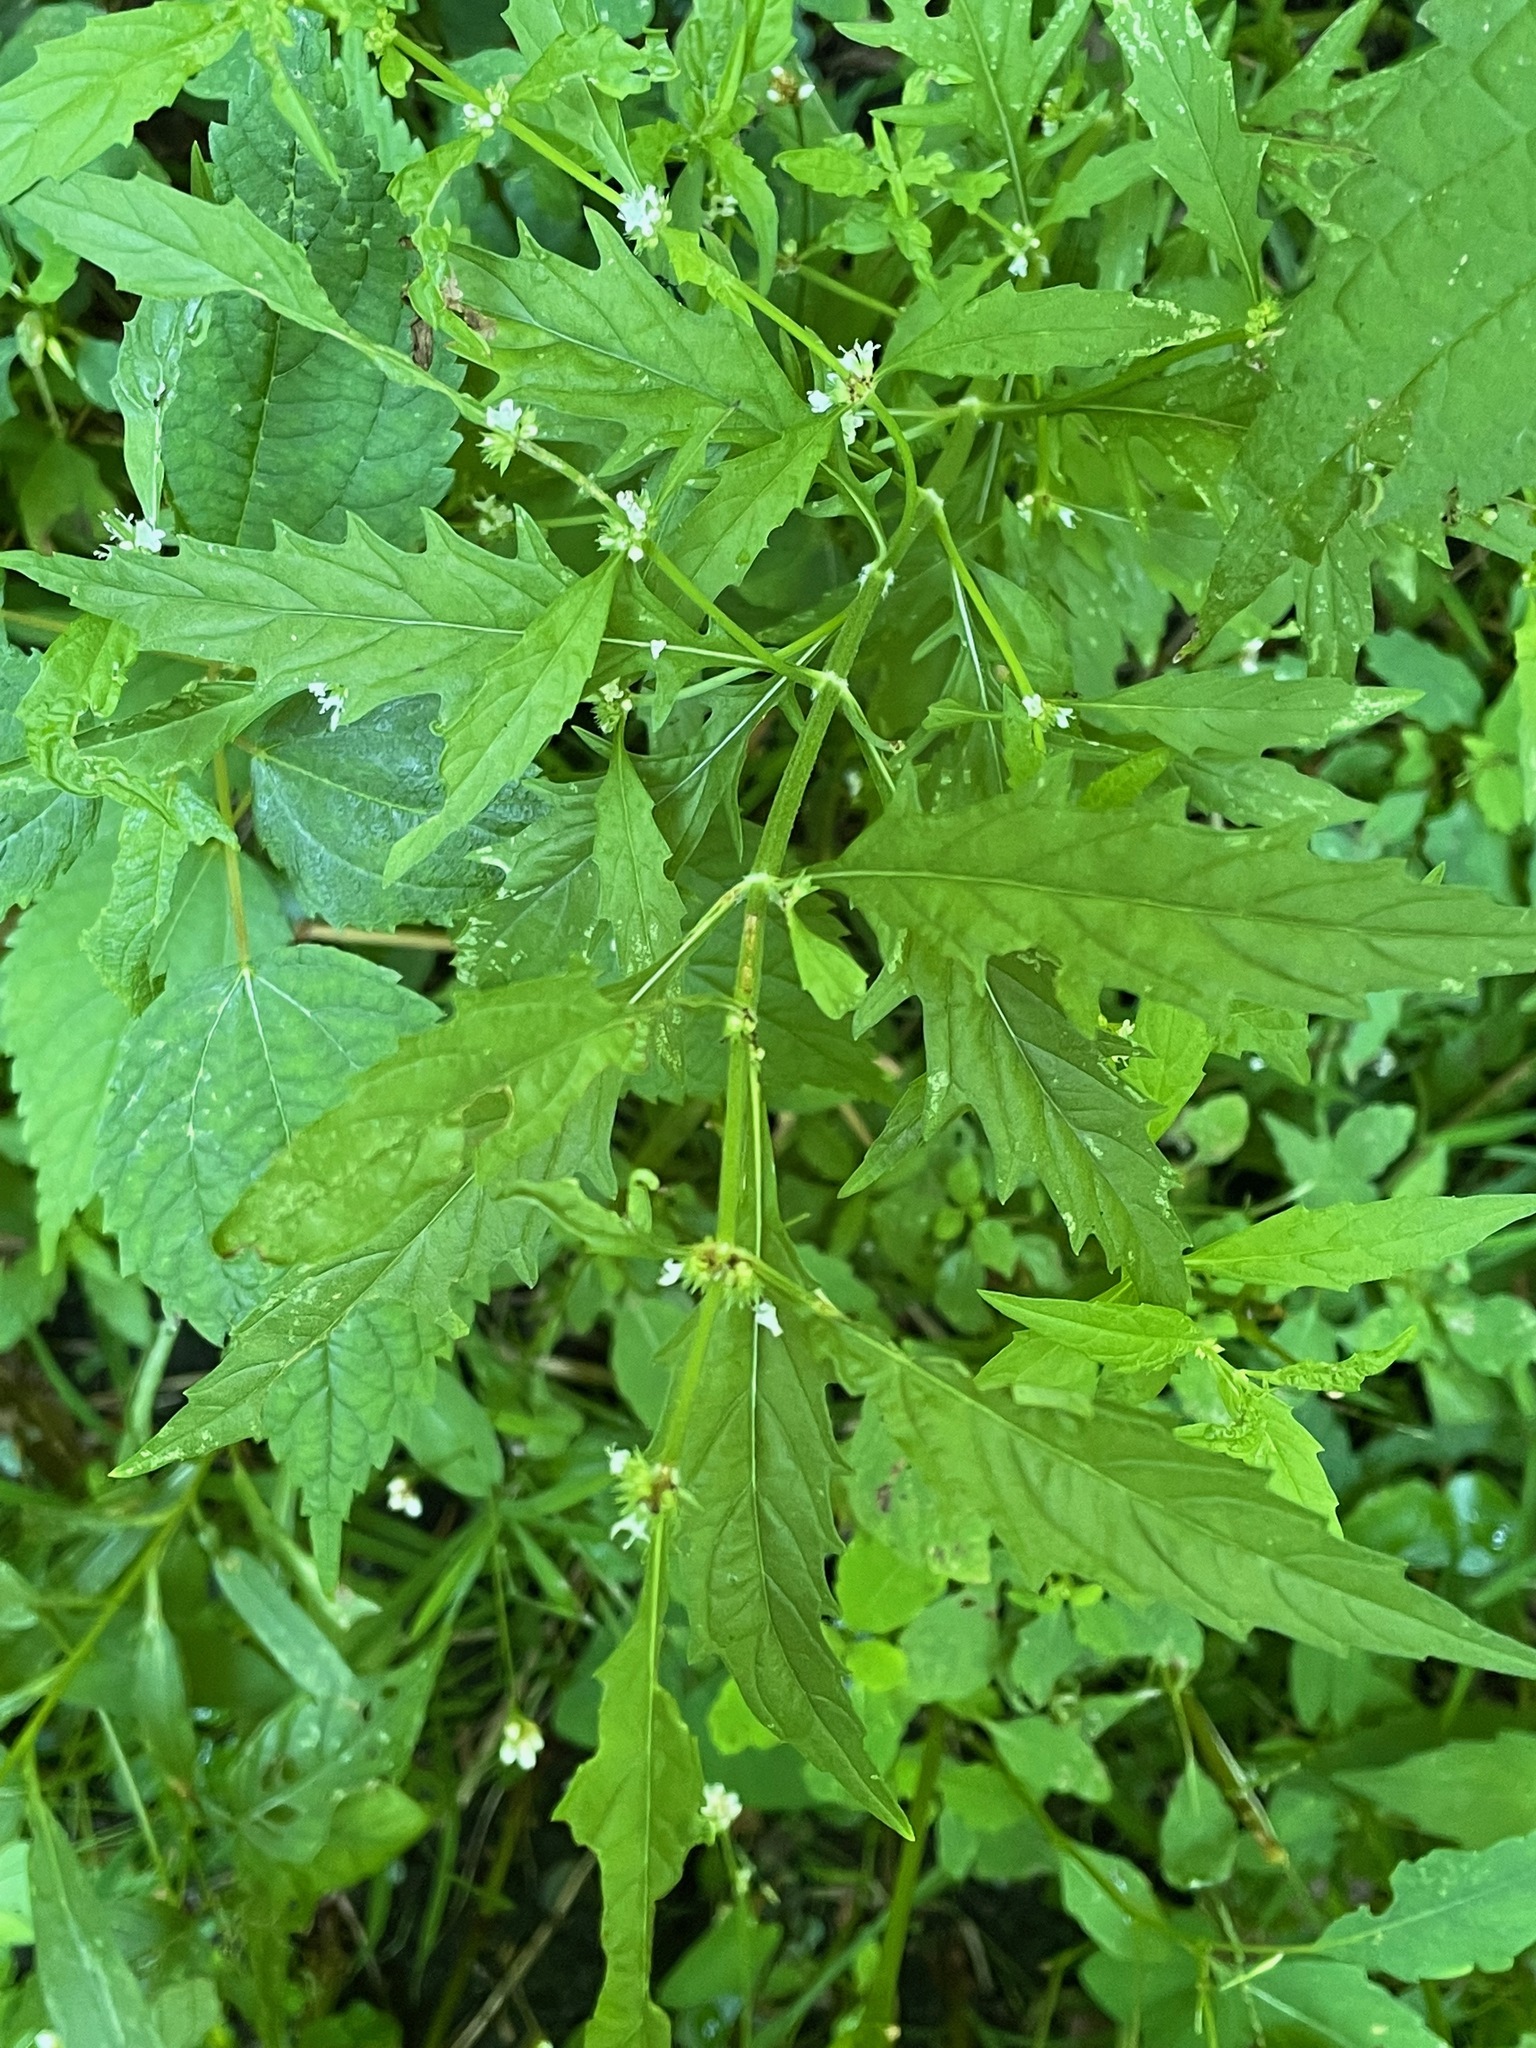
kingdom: Plantae
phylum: Tracheophyta
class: Magnoliopsida
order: Lamiales
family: Lamiaceae
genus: Lycopus
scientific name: Lycopus americanus
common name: American bugleweed
